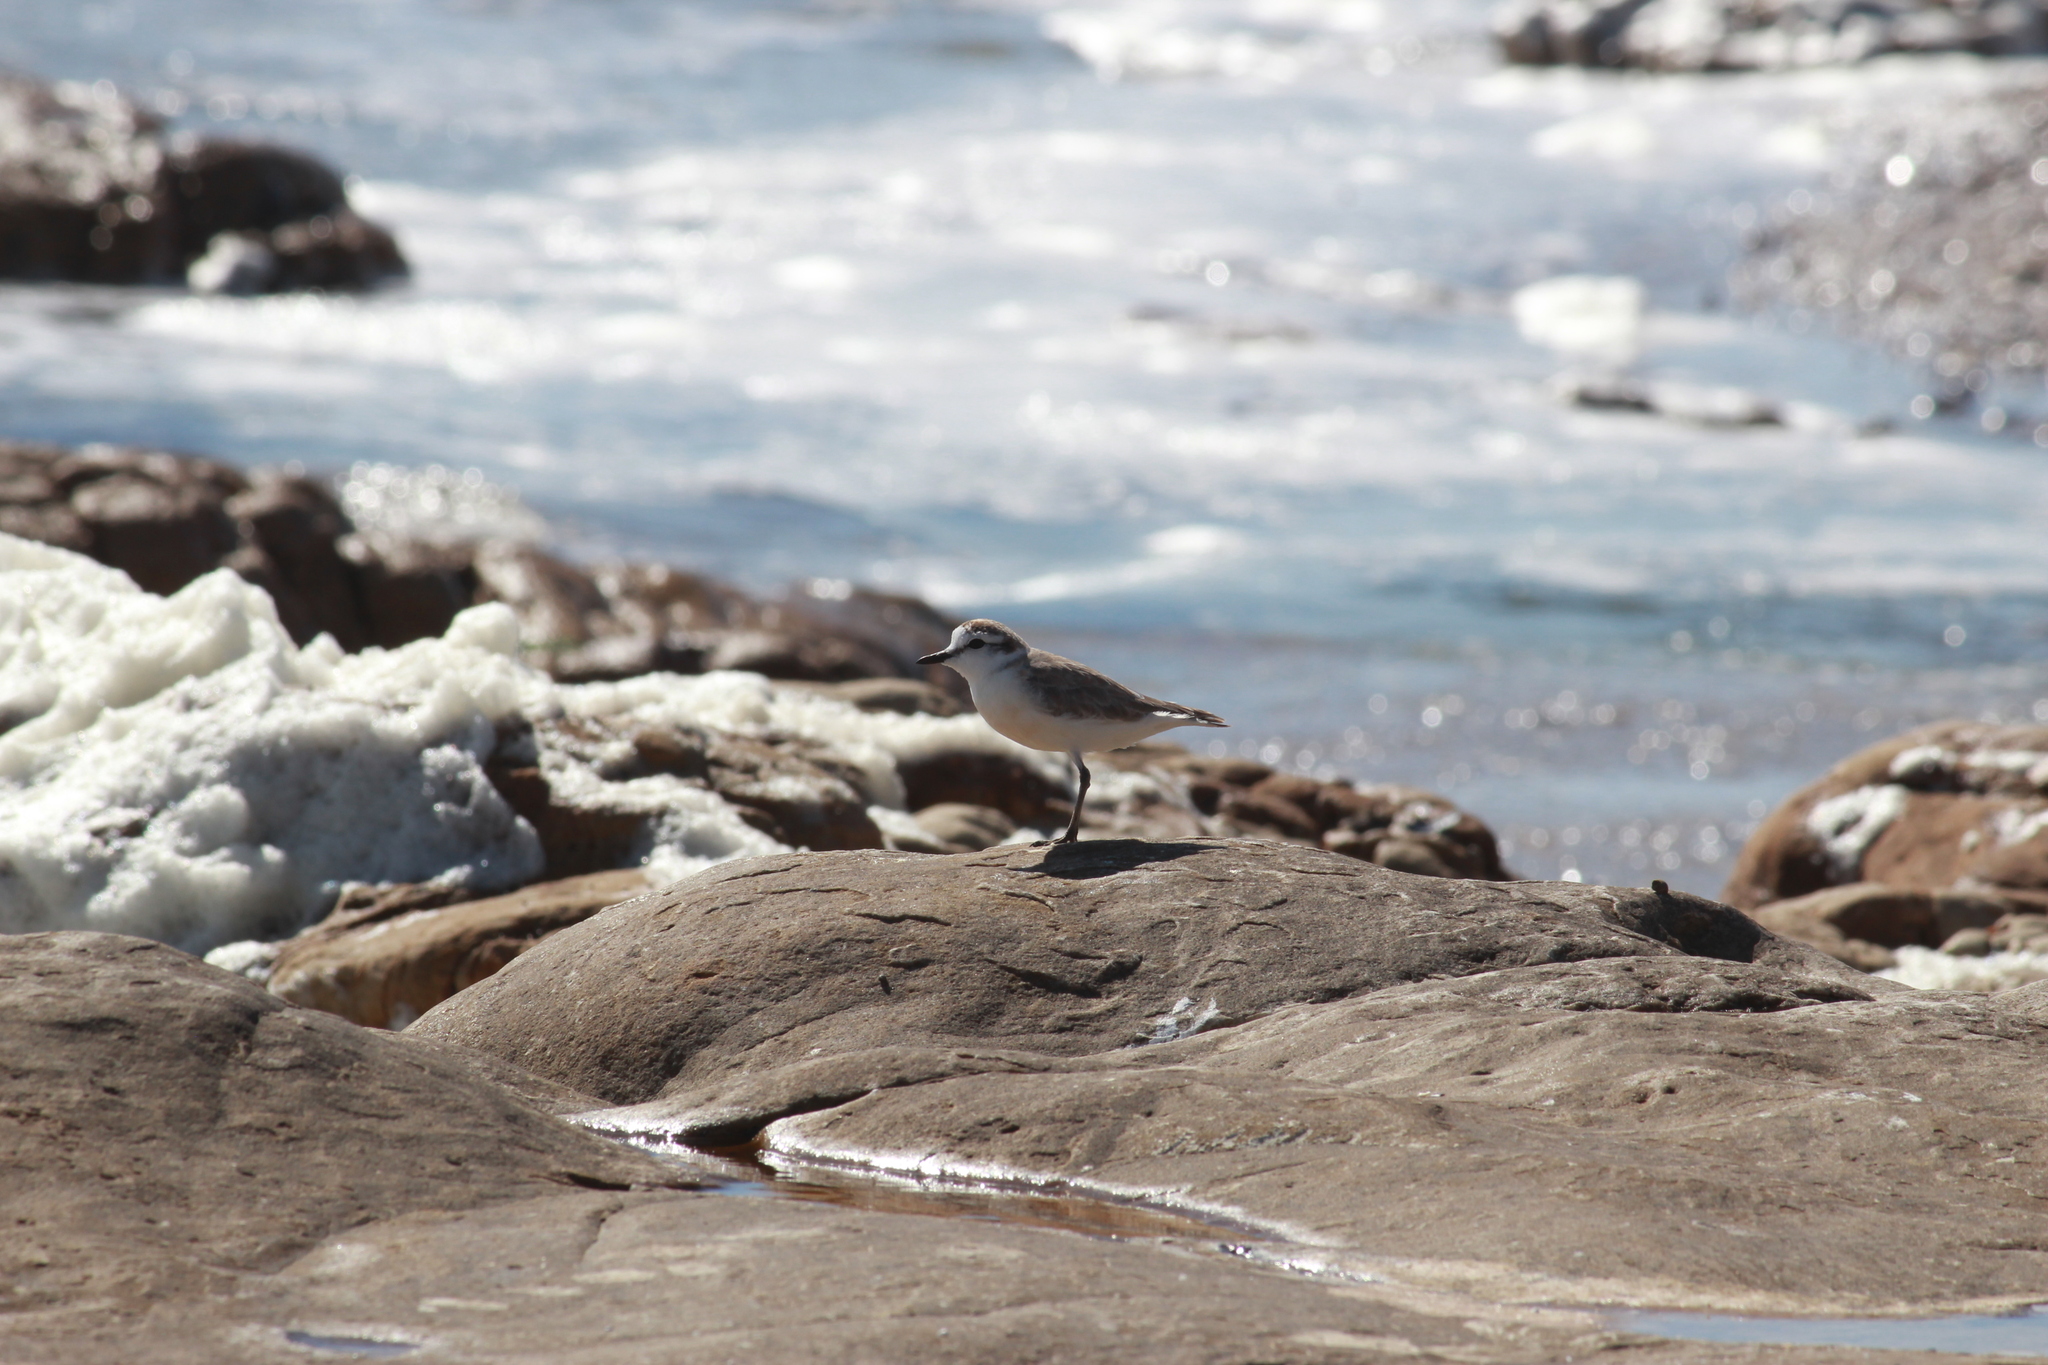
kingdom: Animalia
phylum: Chordata
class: Aves
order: Charadriiformes
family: Charadriidae
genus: Anarhynchus
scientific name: Anarhynchus
